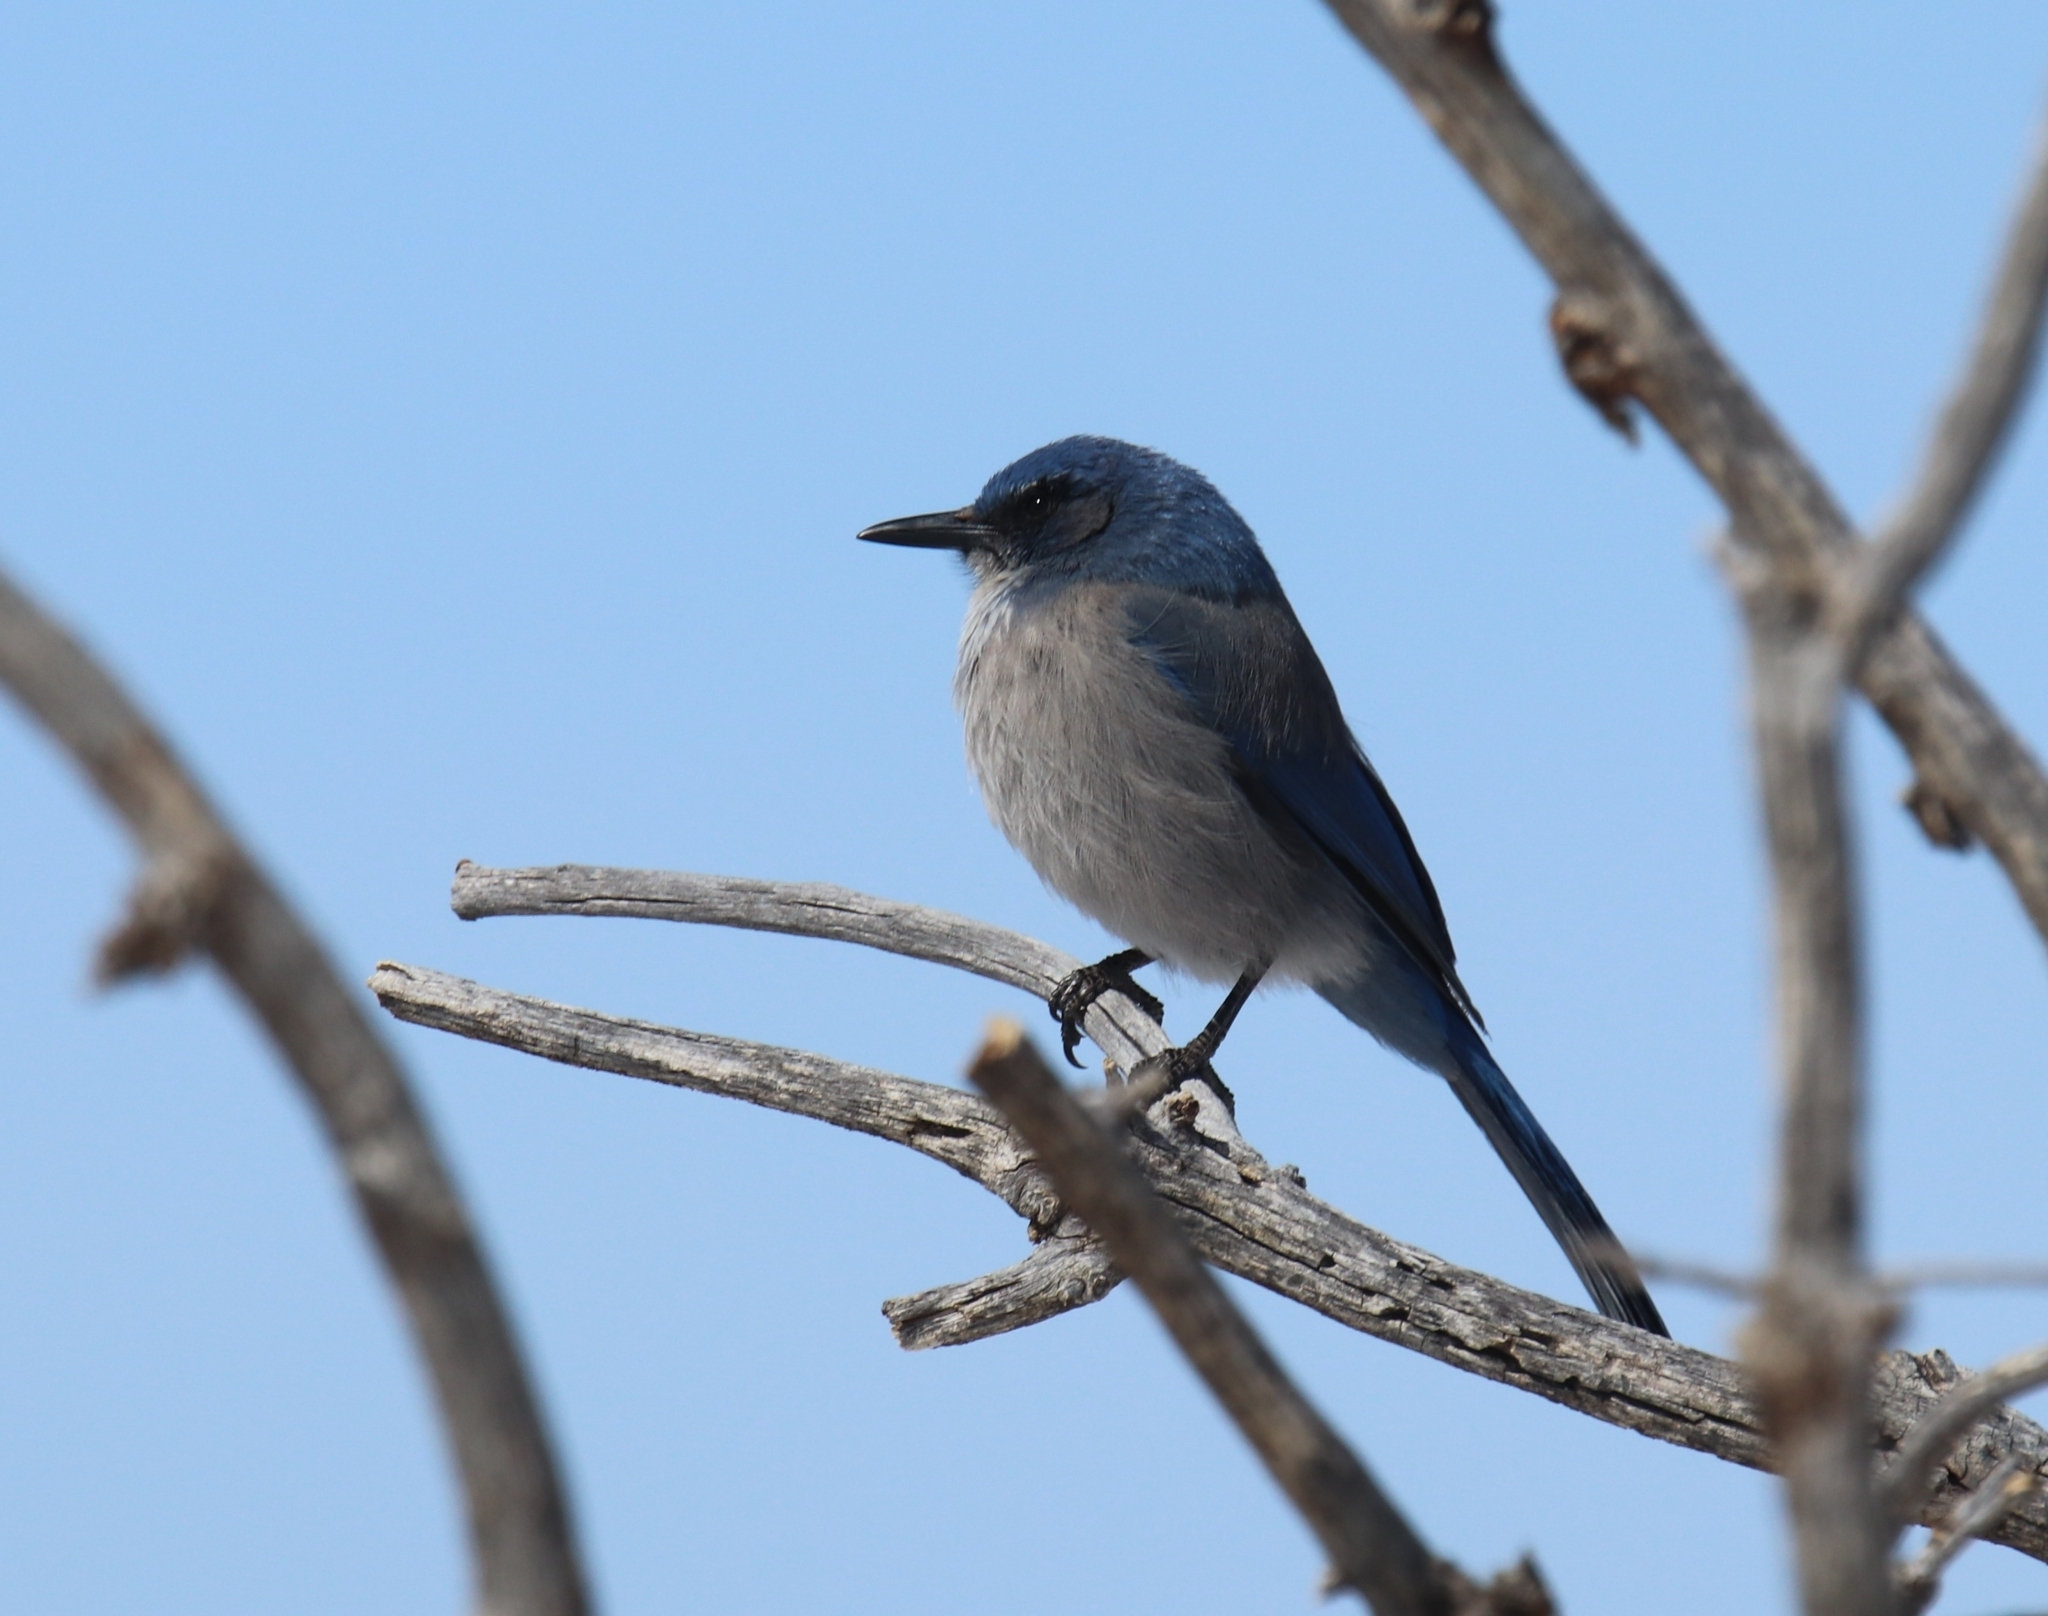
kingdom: Animalia
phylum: Chordata
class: Aves
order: Passeriformes
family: Corvidae
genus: Aphelocoma
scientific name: Aphelocoma woodhouseii
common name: Woodhouse's scrub-jay
